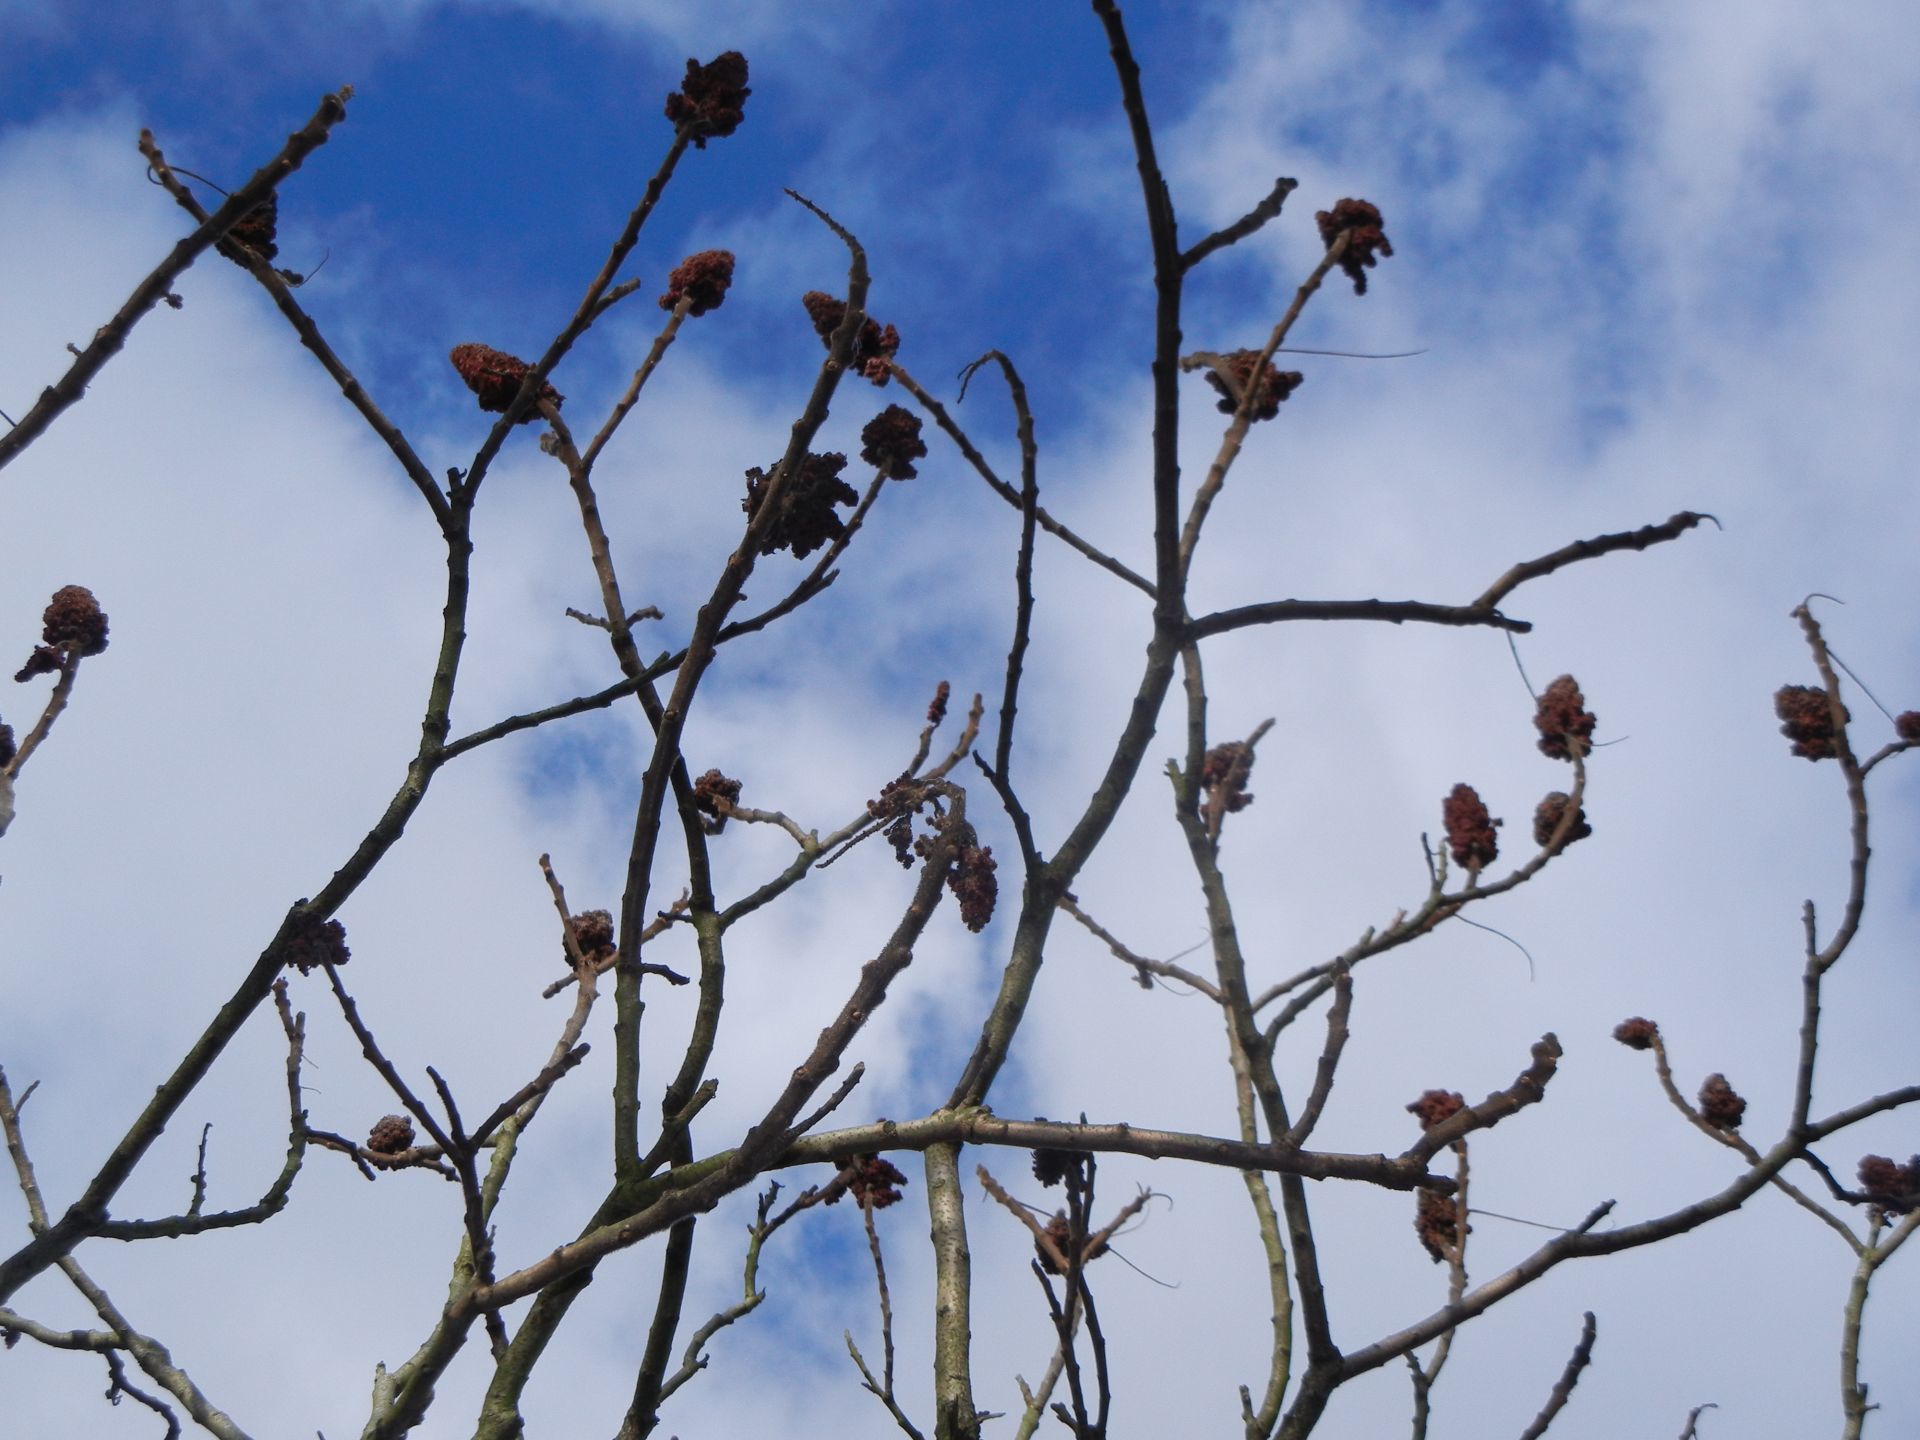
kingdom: Plantae
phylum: Tracheophyta
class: Magnoliopsida
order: Sapindales
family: Anacardiaceae
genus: Rhus
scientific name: Rhus typhina
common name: Staghorn sumac
